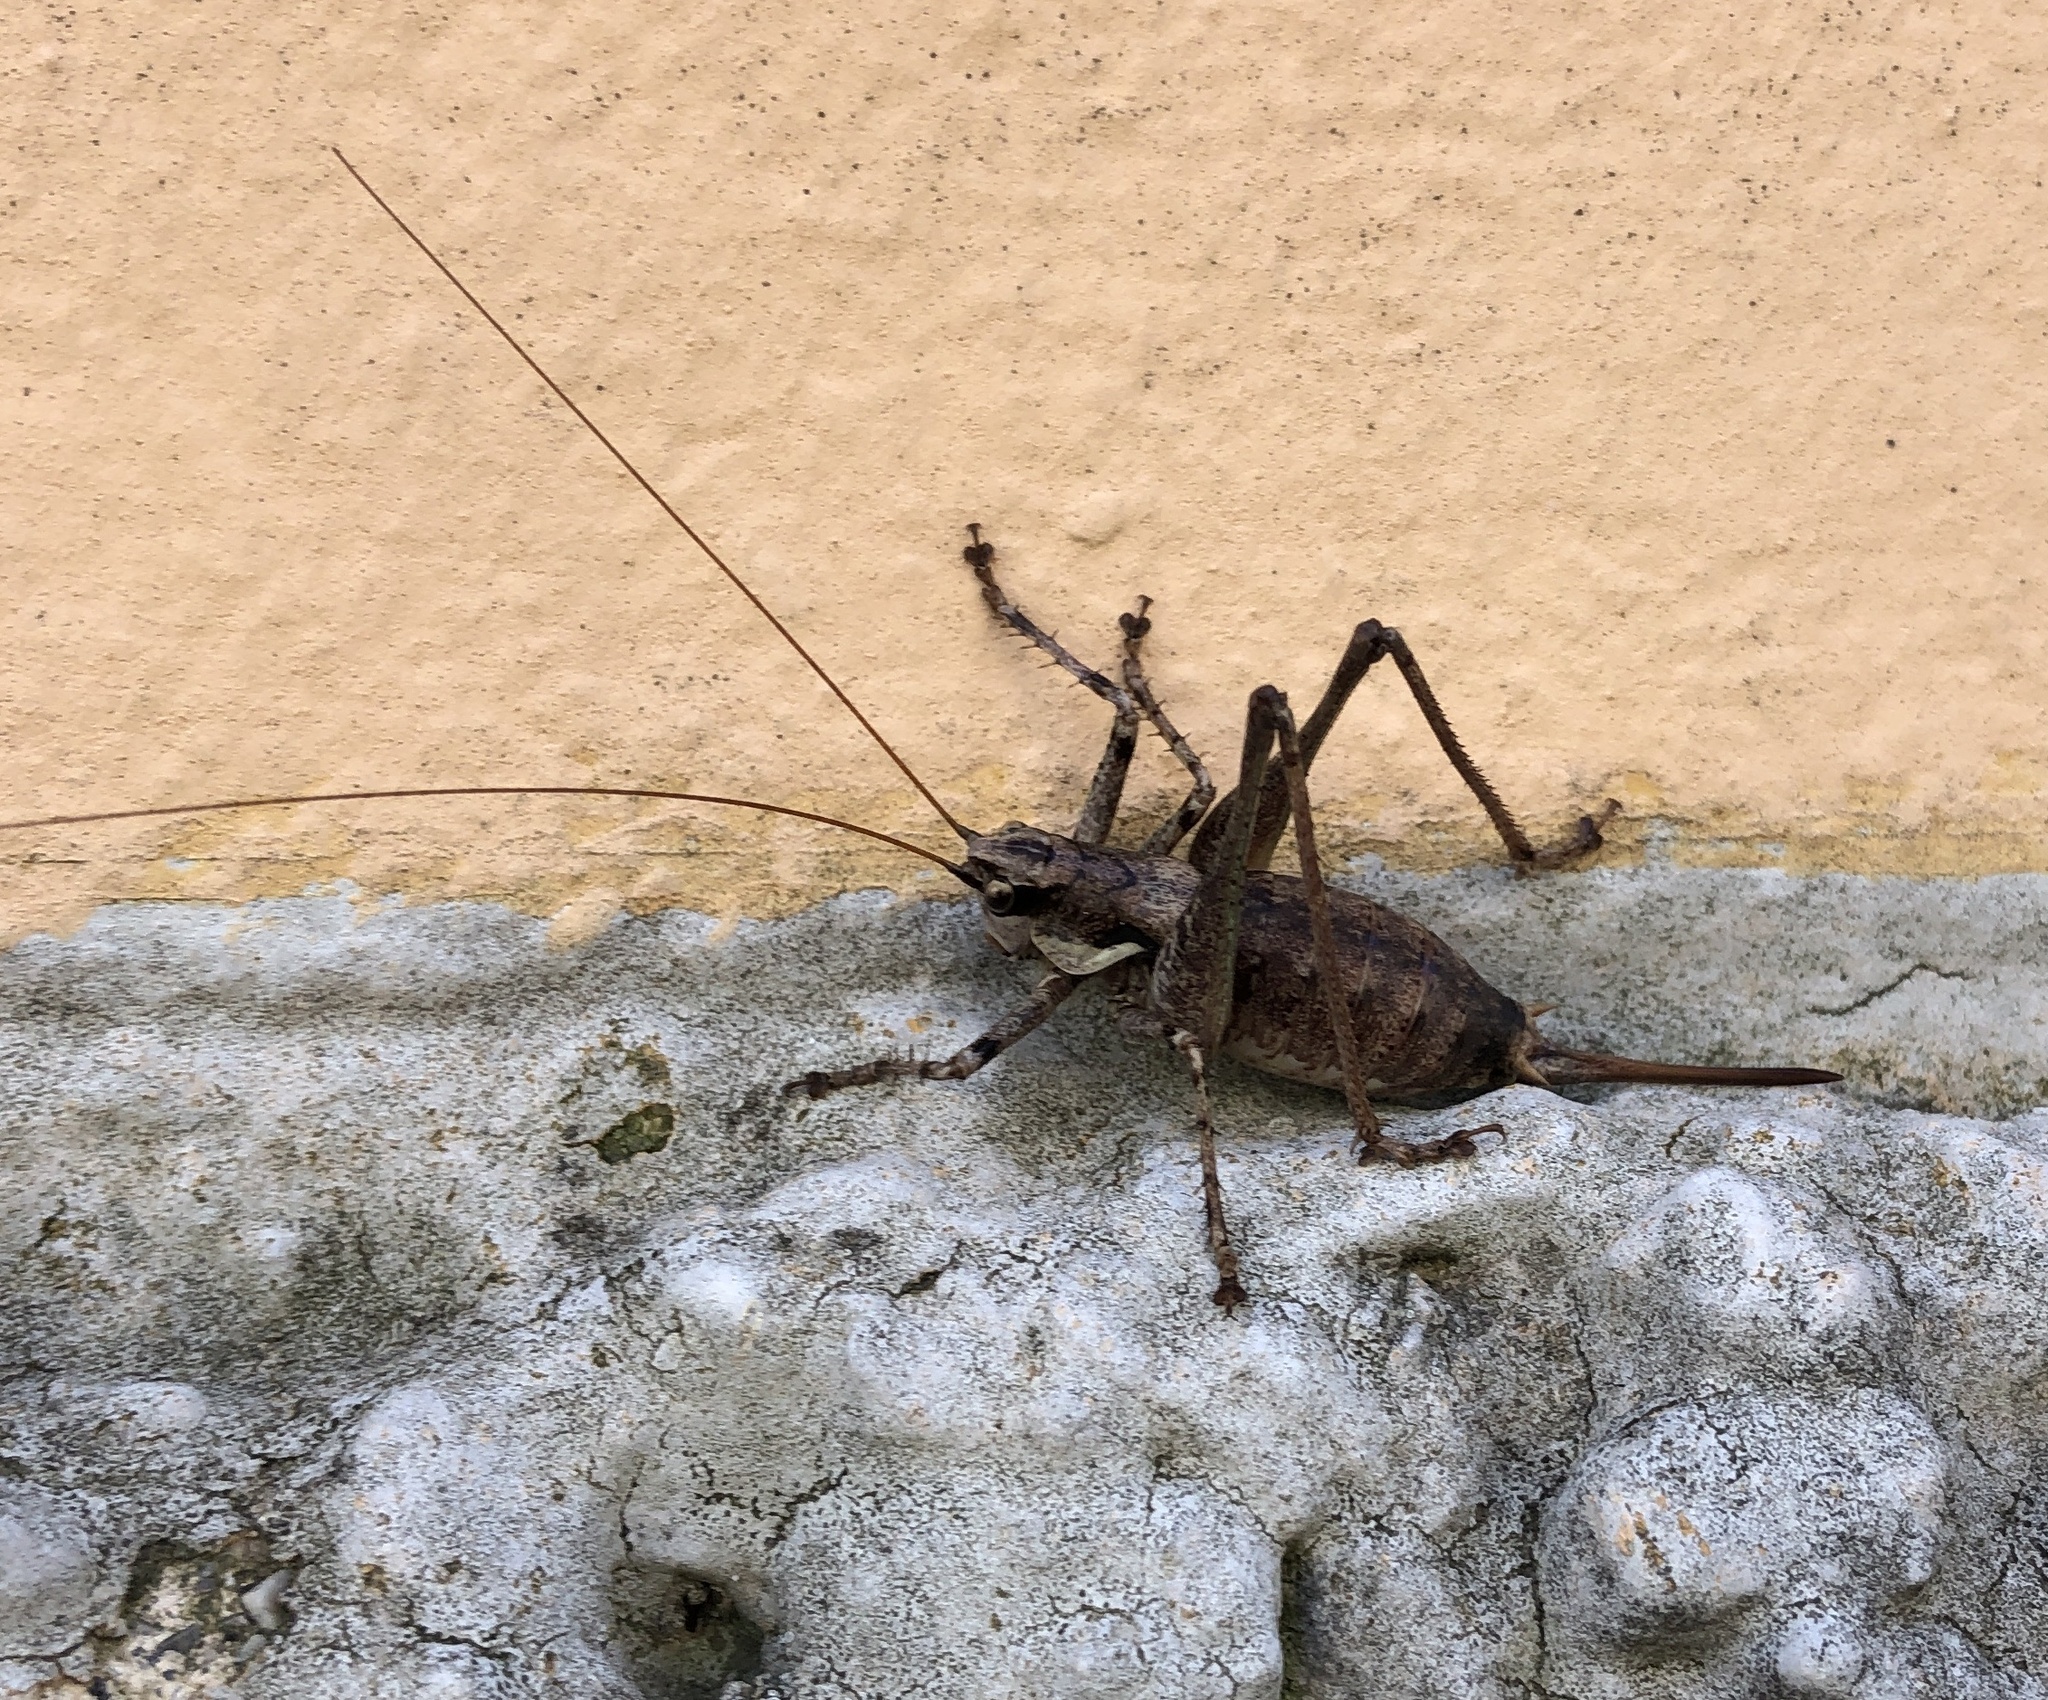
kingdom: Animalia
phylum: Arthropoda
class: Insecta
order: Orthoptera
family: Tettigoniidae
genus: Antaxius
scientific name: Antaxius pedestris
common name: Common mountain bush-cricket
